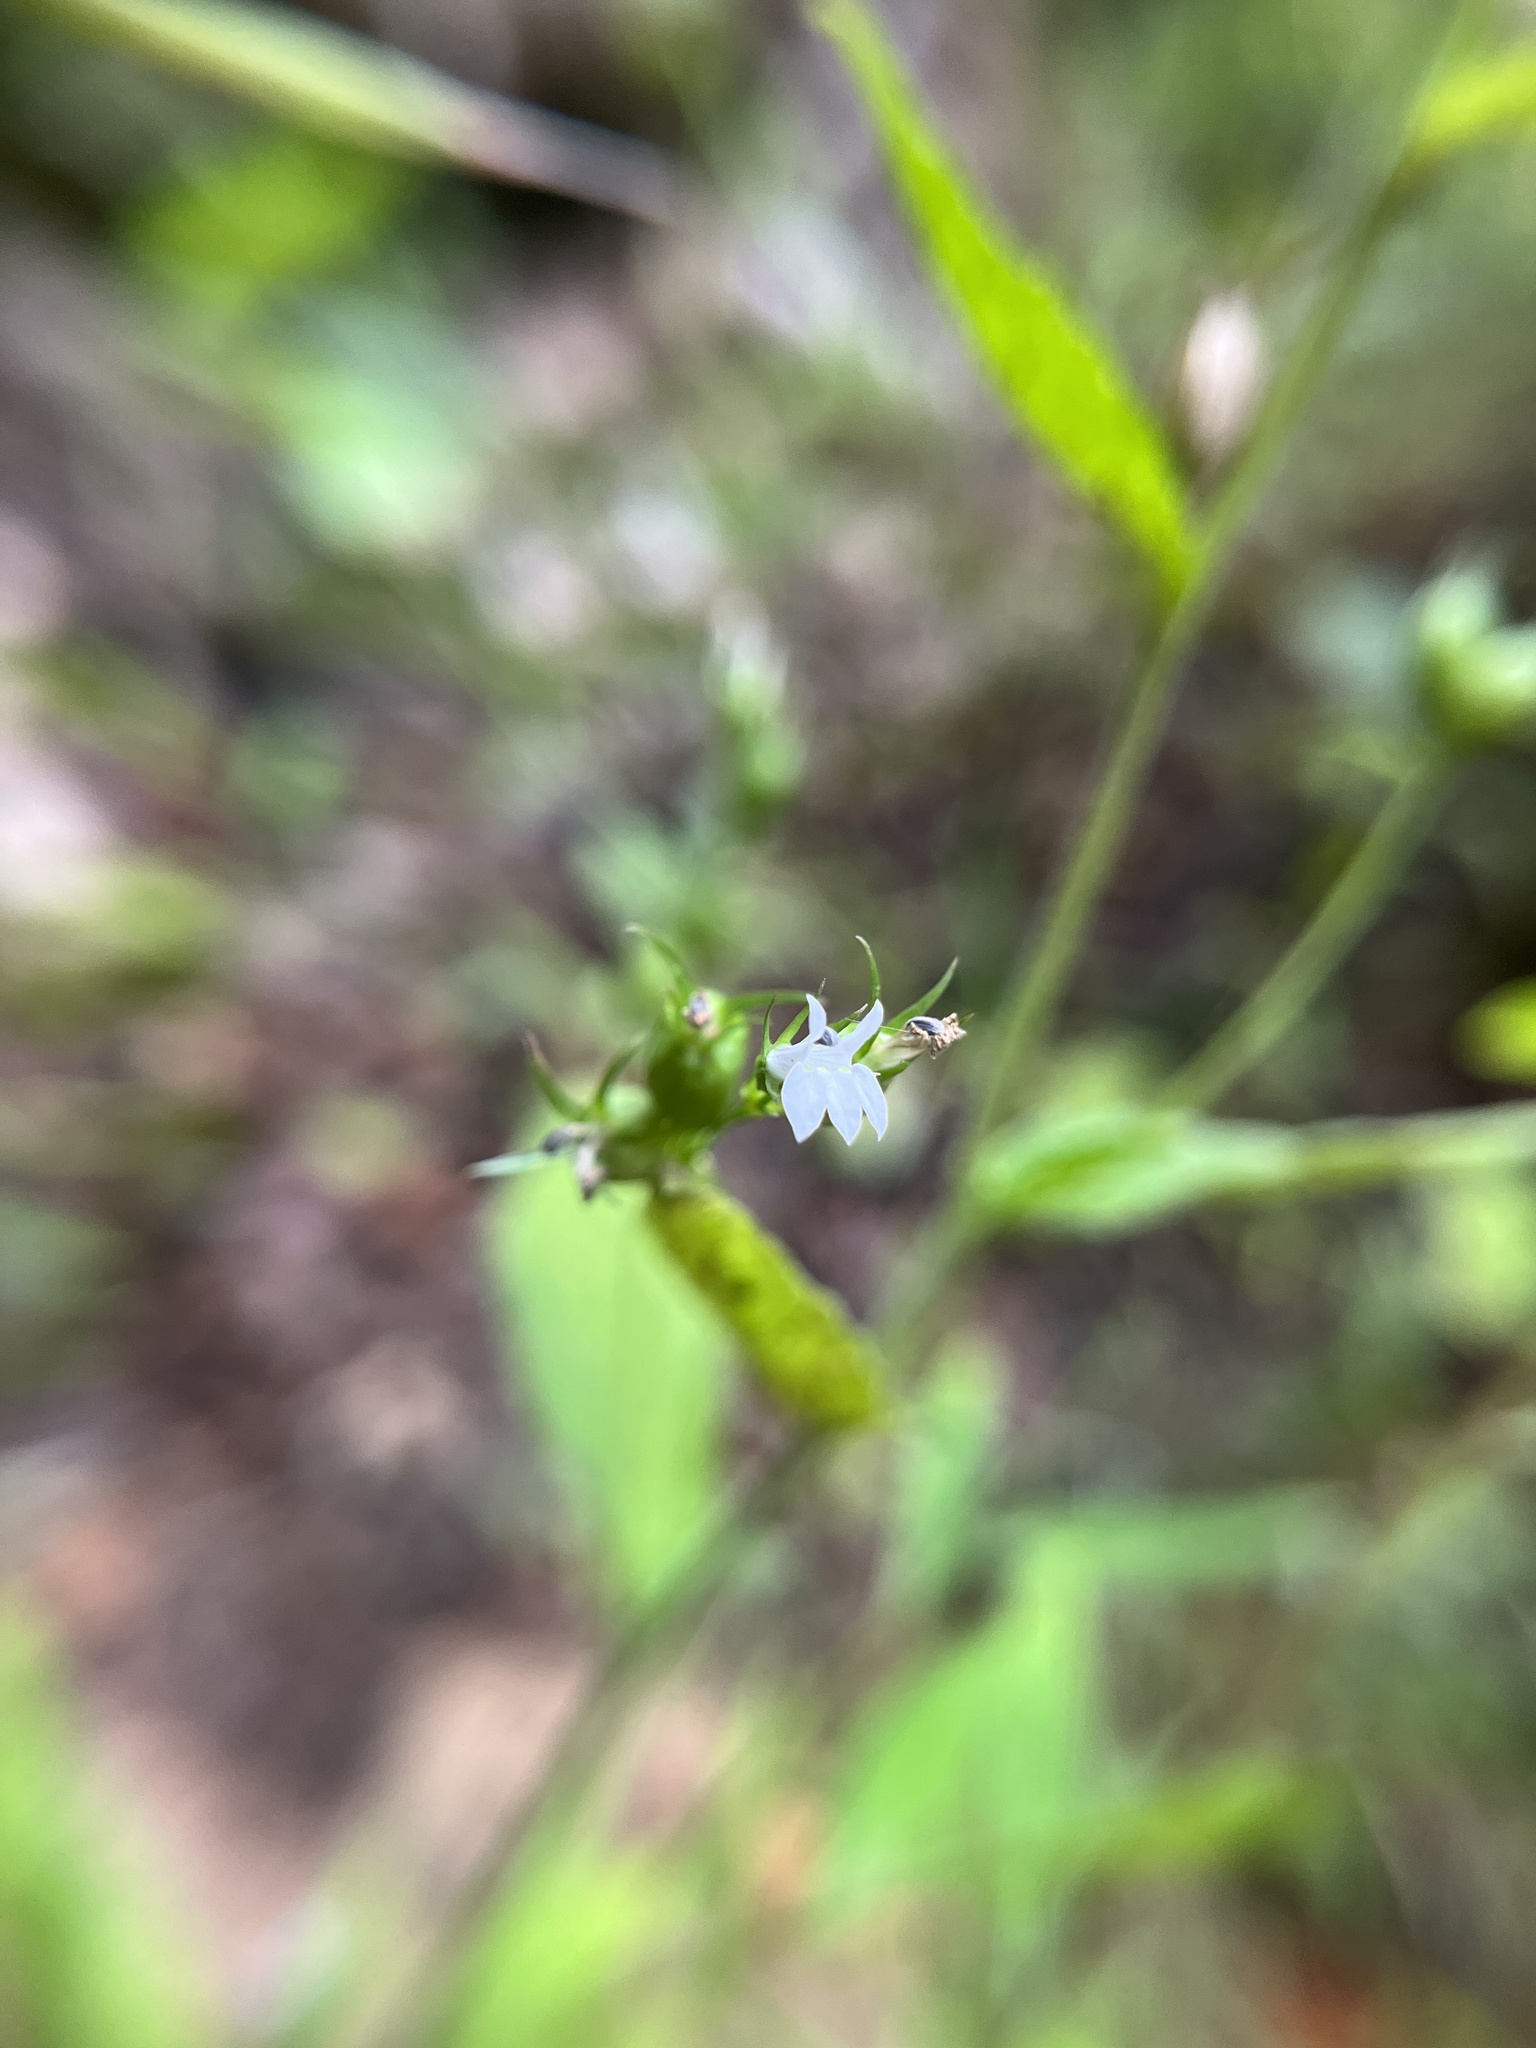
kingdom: Plantae
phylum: Tracheophyta
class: Magnoliopsida
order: Asterales
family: Campanulaceae
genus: Lobelia
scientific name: Lobelia inflata
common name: Indian tobacco
